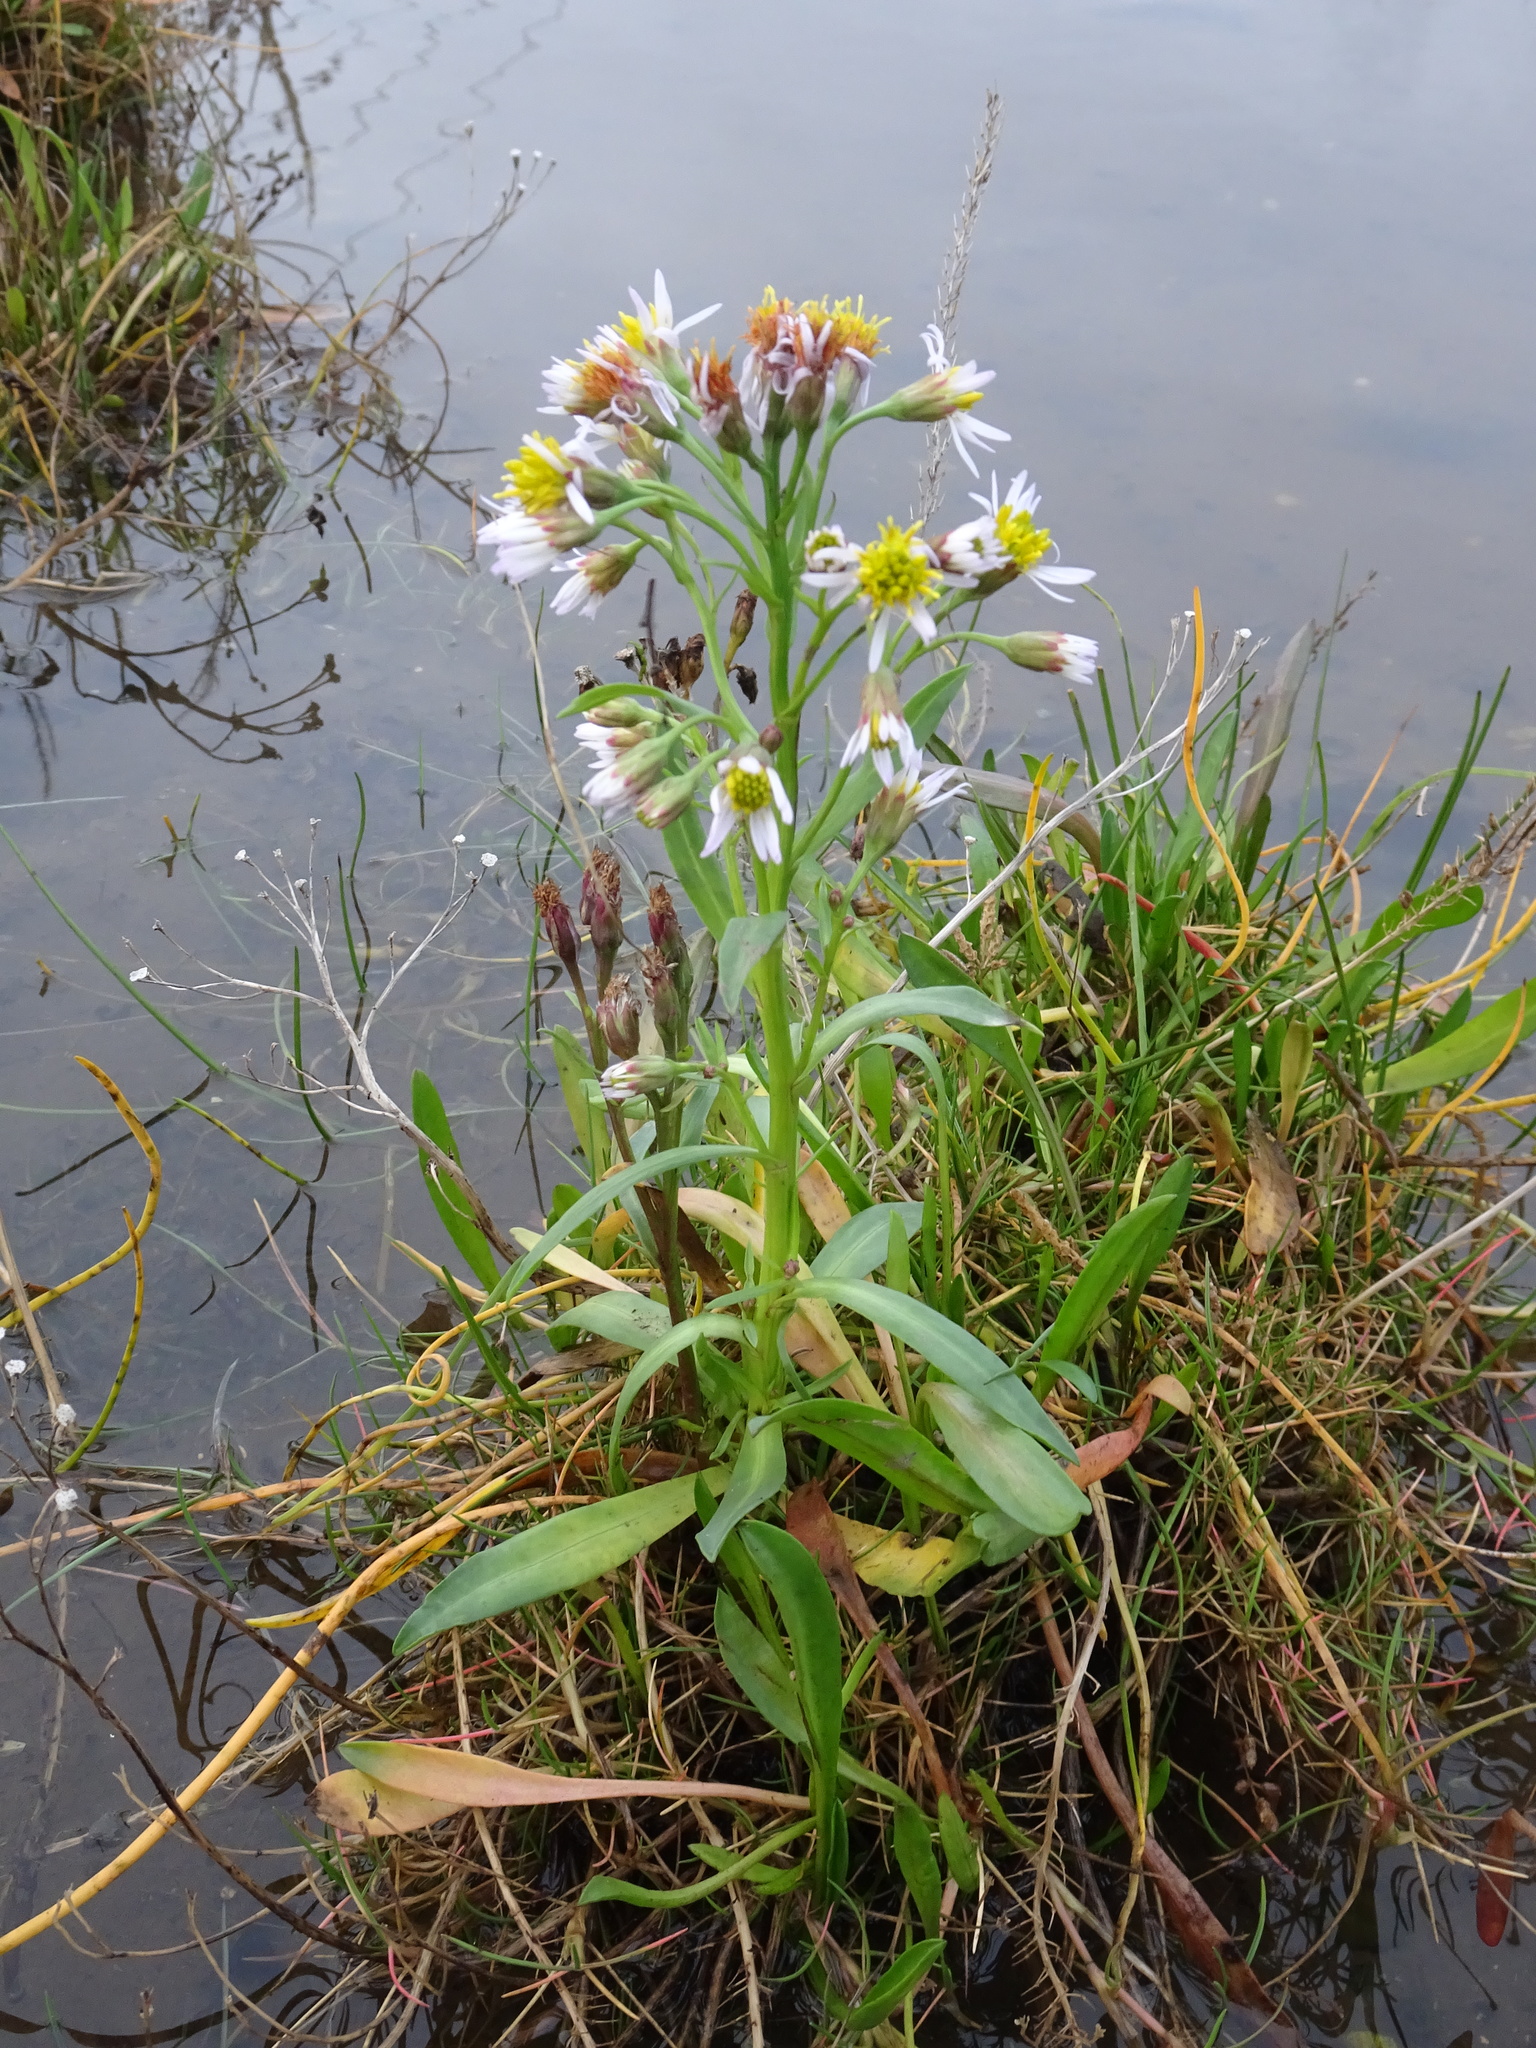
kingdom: Plantae
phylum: Tracheophyta
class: Magnoliopsida
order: Asterales
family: Asteraceae
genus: Tripolium
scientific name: Tripolium pannonicum
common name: Sea aster
